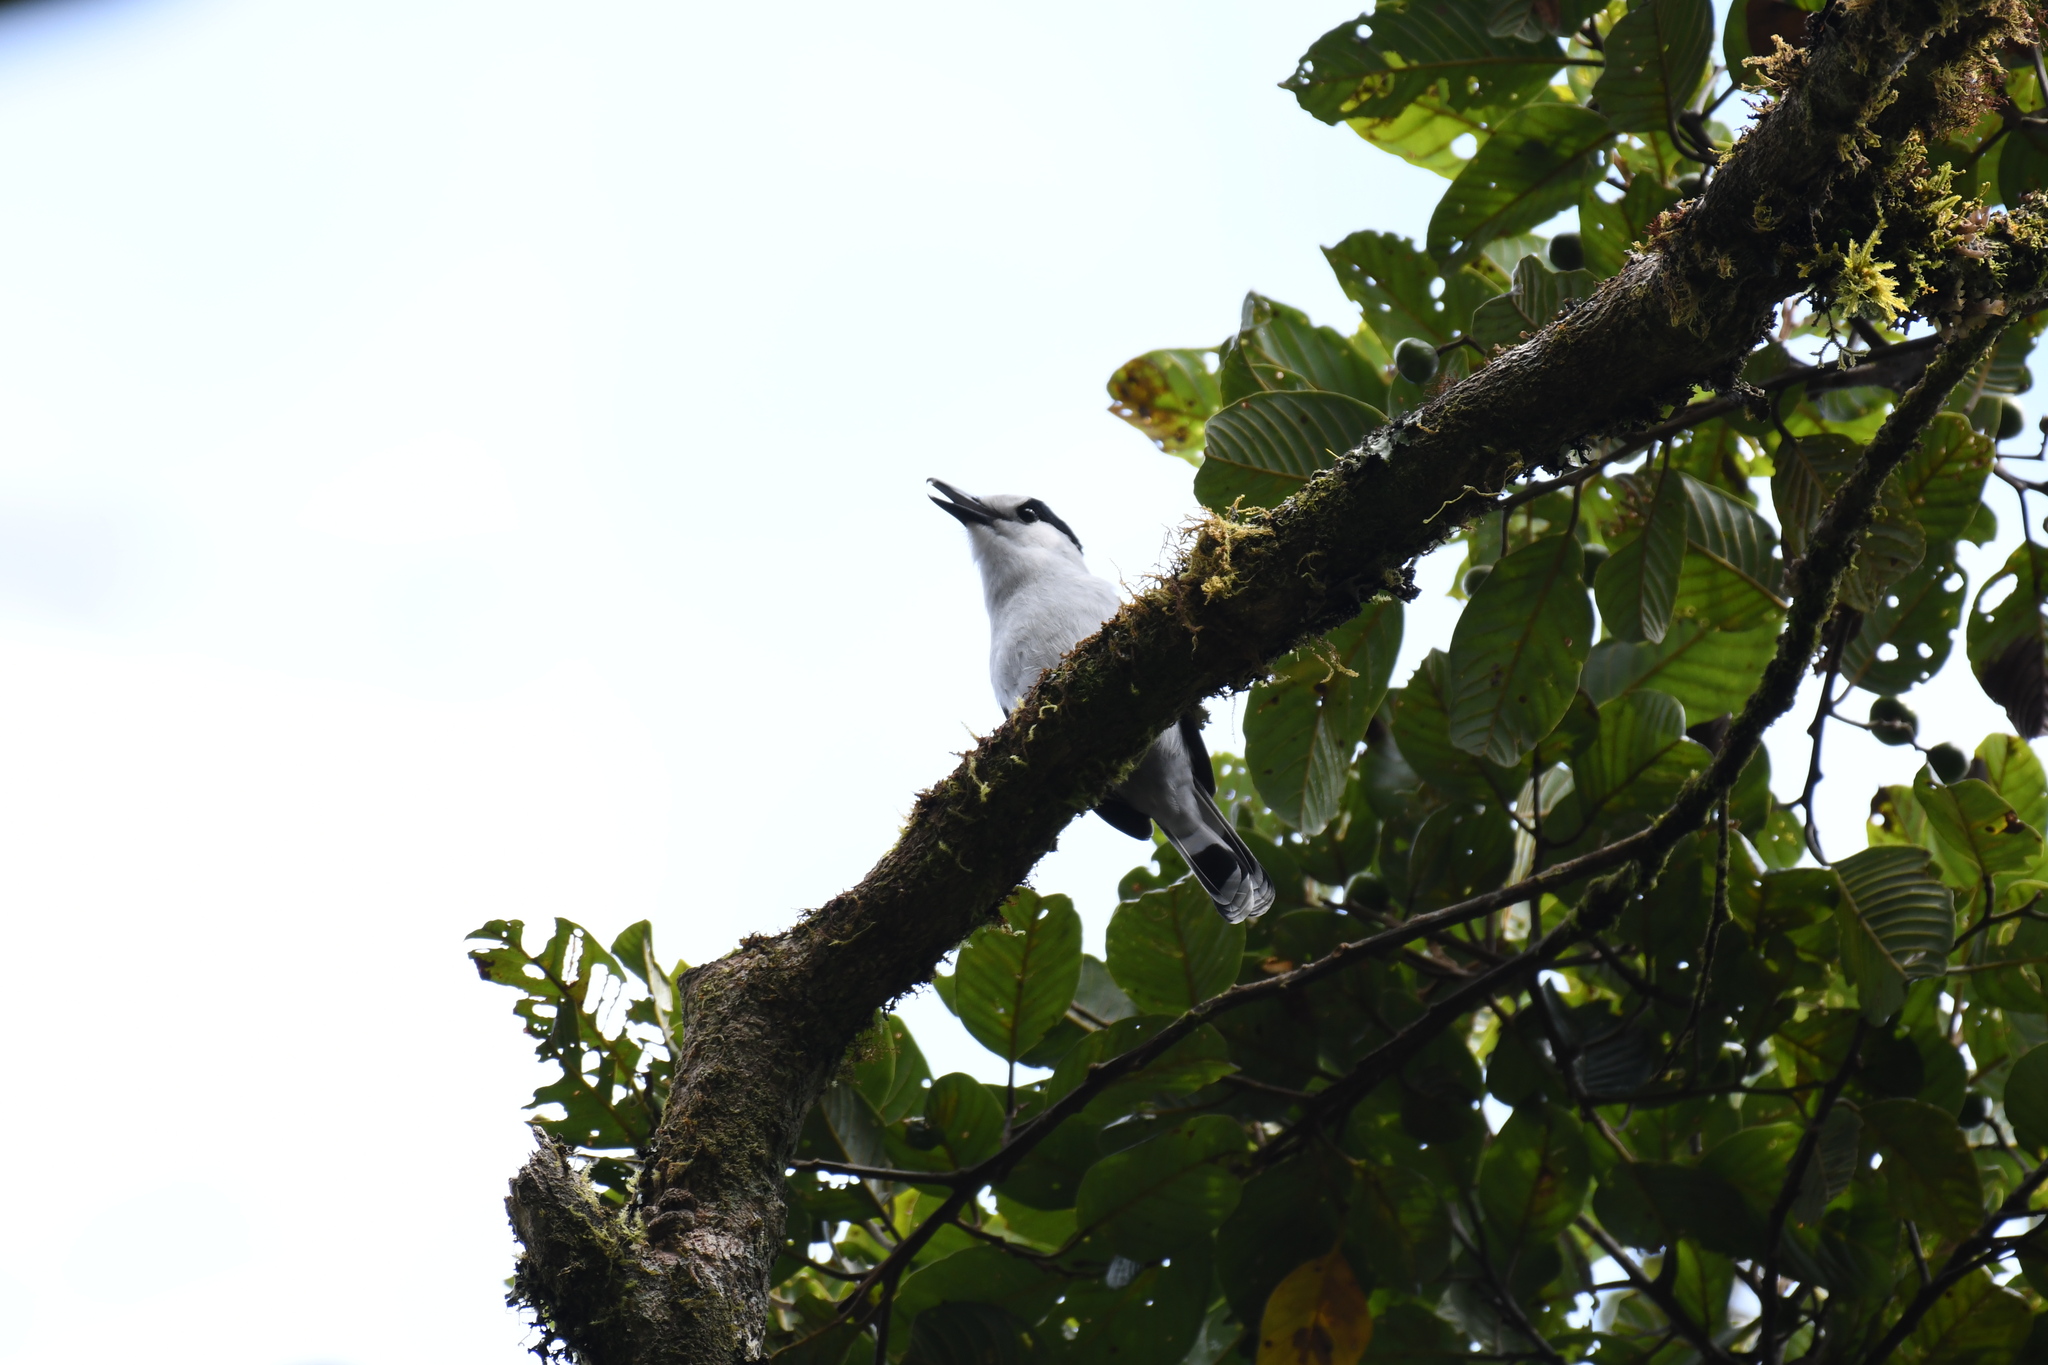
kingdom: Animalia
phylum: Chordata
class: Aves
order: Passeriformes
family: Vangidae
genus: Vanga
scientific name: Vanga curvirostris
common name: Hook-billed vanga
